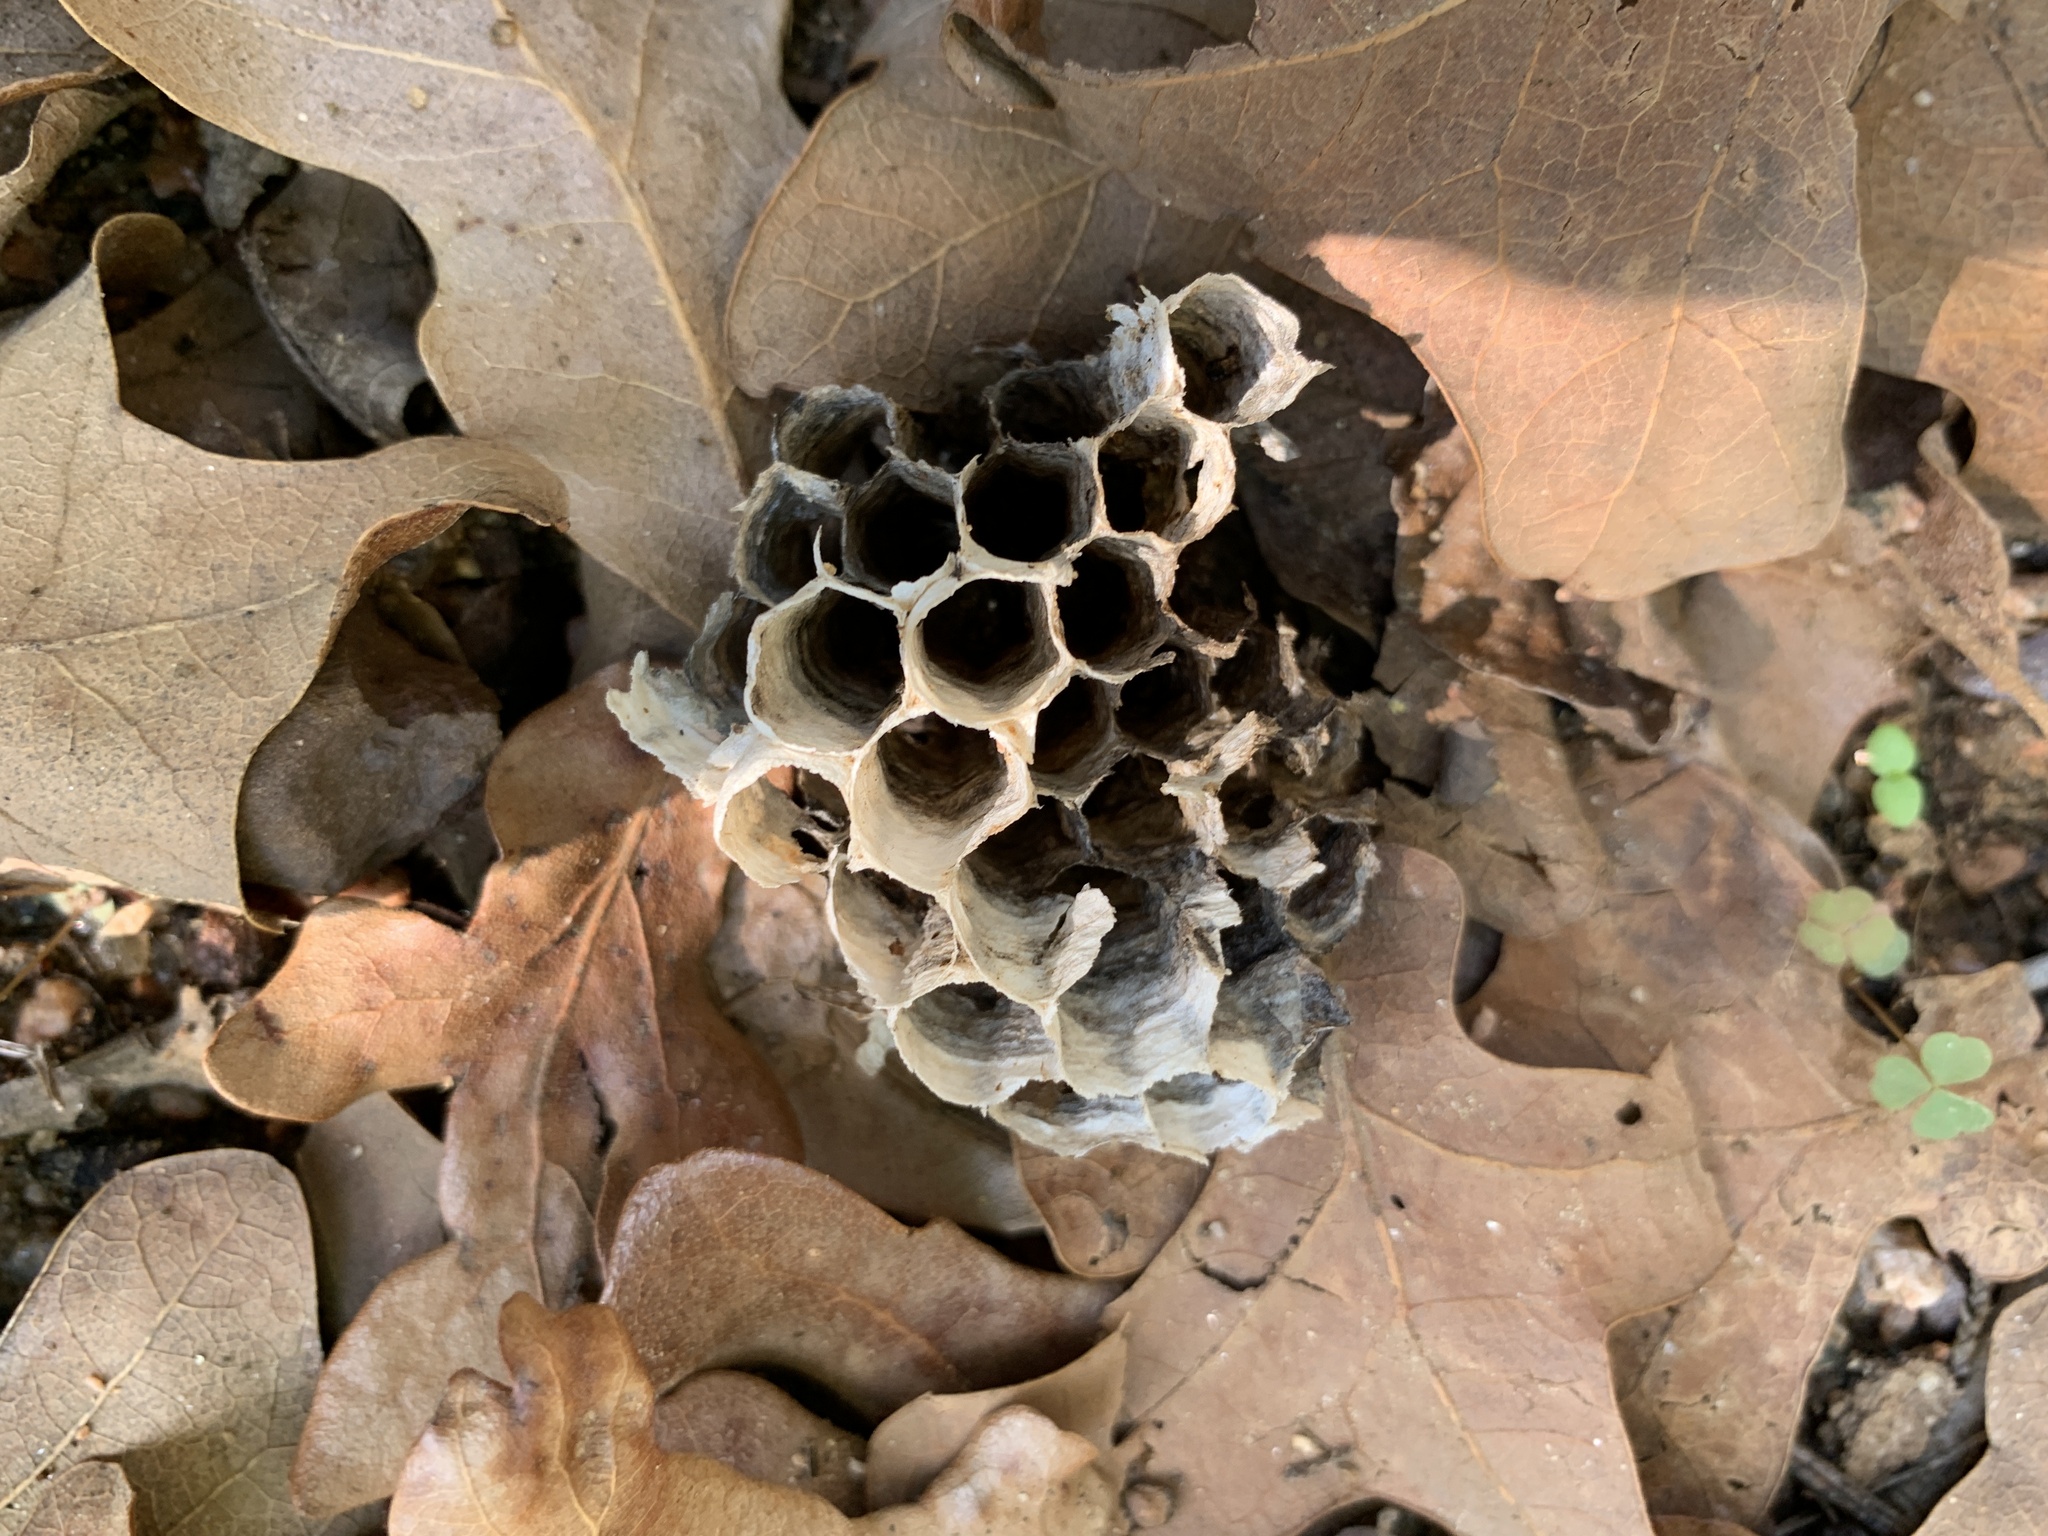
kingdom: Animalia
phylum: Arthropoda
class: Insecta
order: Hymenoptera
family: Vespidae
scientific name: Vespidae
